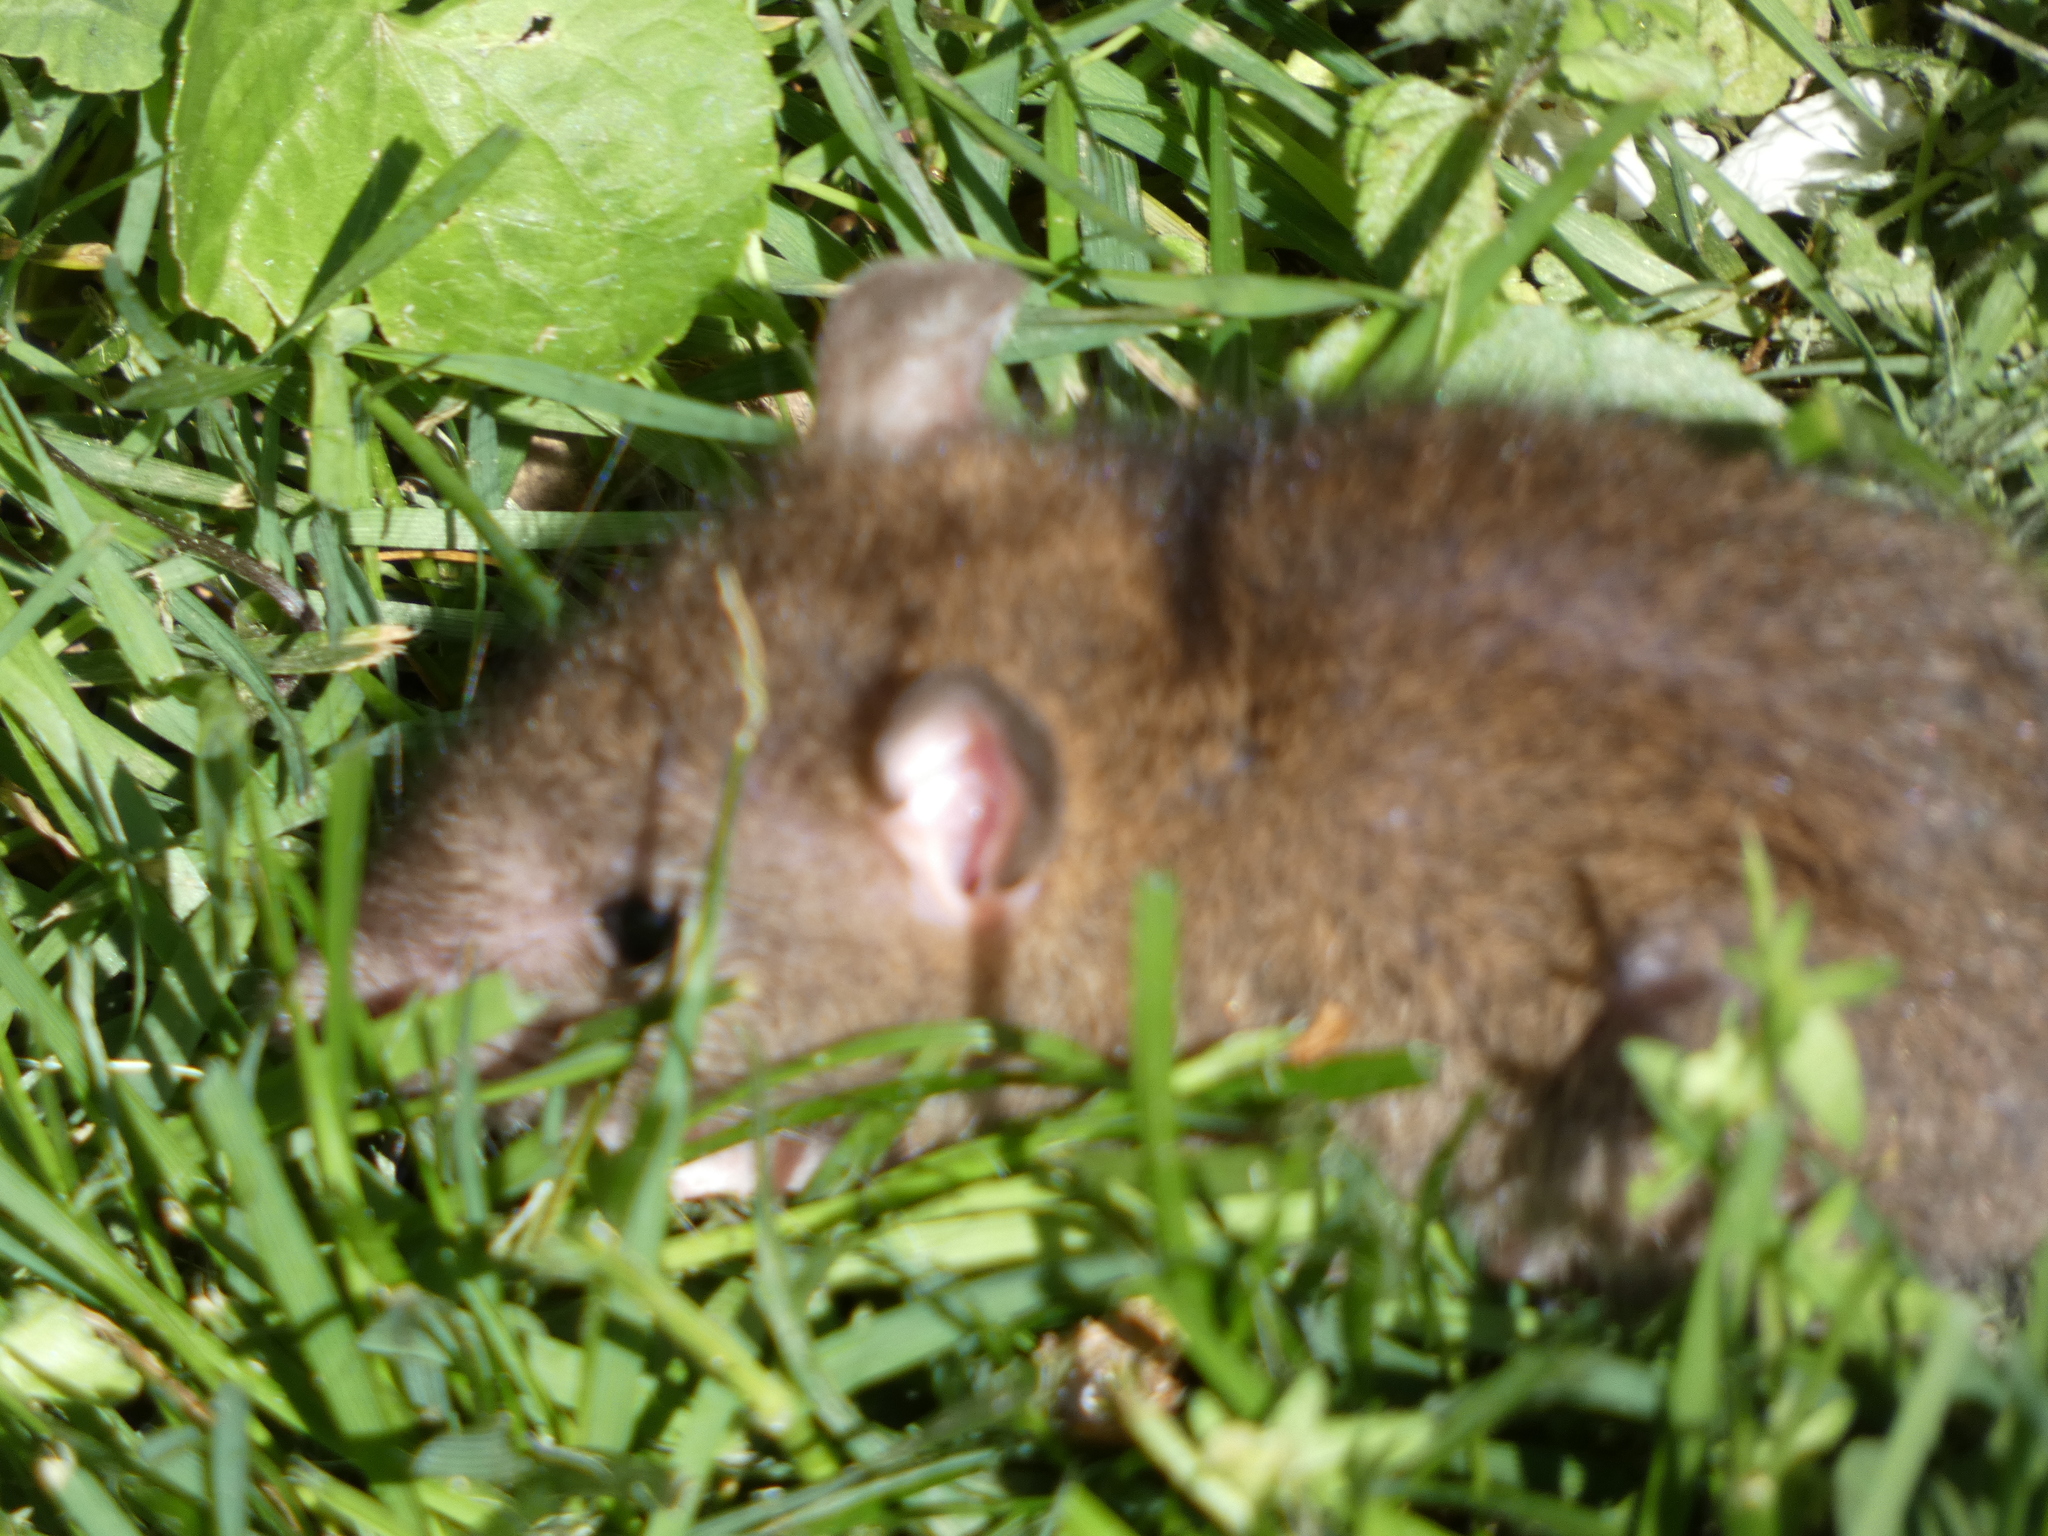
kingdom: Animalia
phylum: Chordata
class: Mammalia
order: Rodentia
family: Muridae
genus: Rattus
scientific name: Rattus norvegicus
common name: Brown rat
